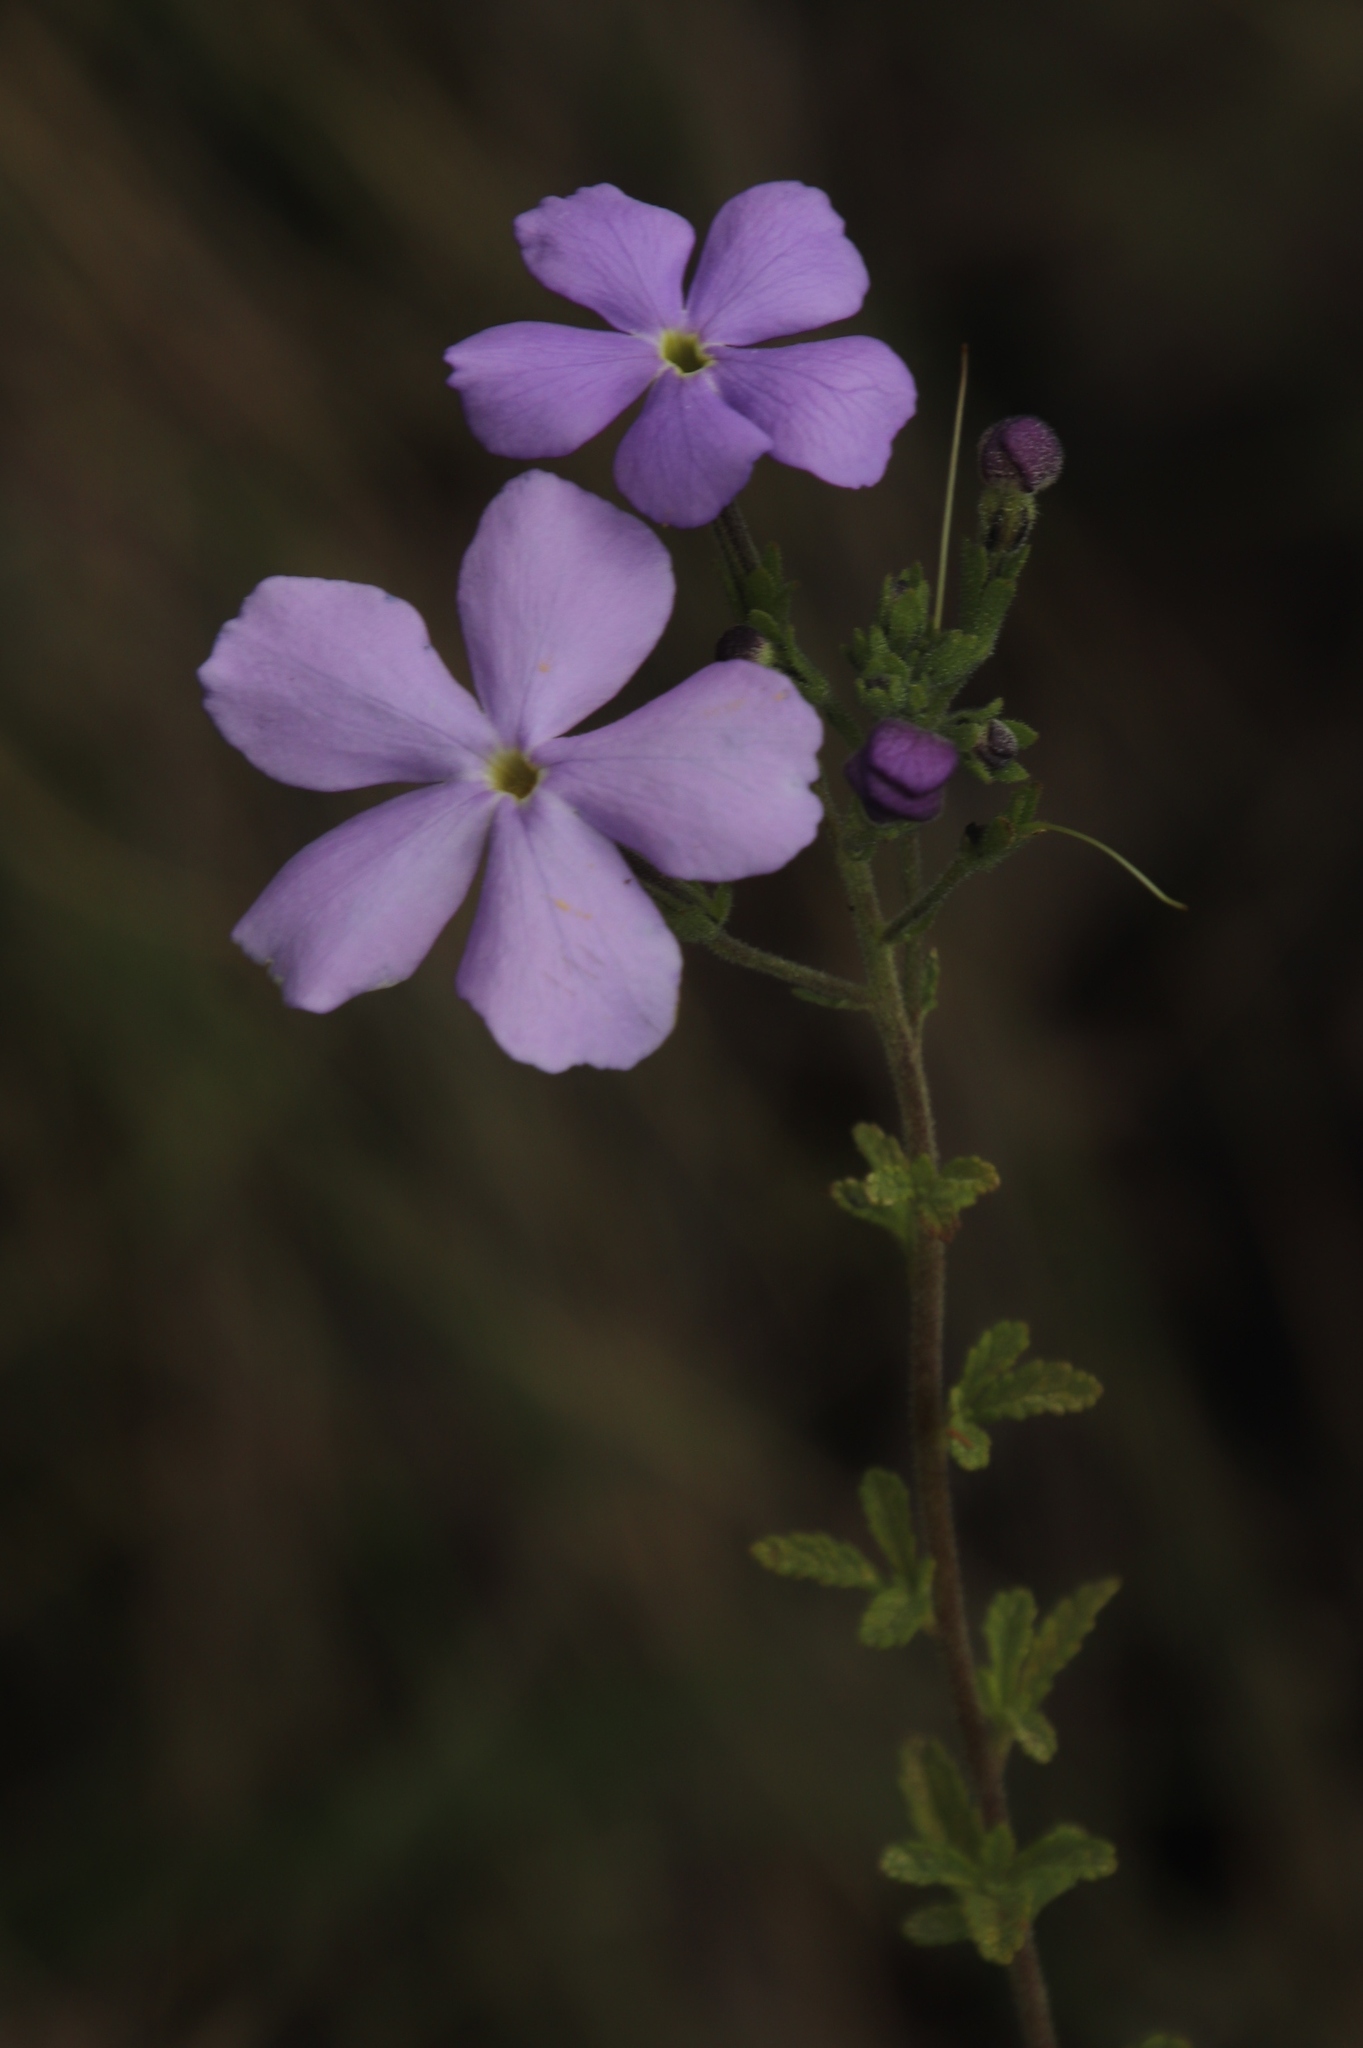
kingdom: Plantae
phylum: Tracheophyta
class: Magnoliopsida
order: Lamiales
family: Scrophulariaceae
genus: Jamesbrittenia
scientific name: Jamesbrittenia grandiflora
